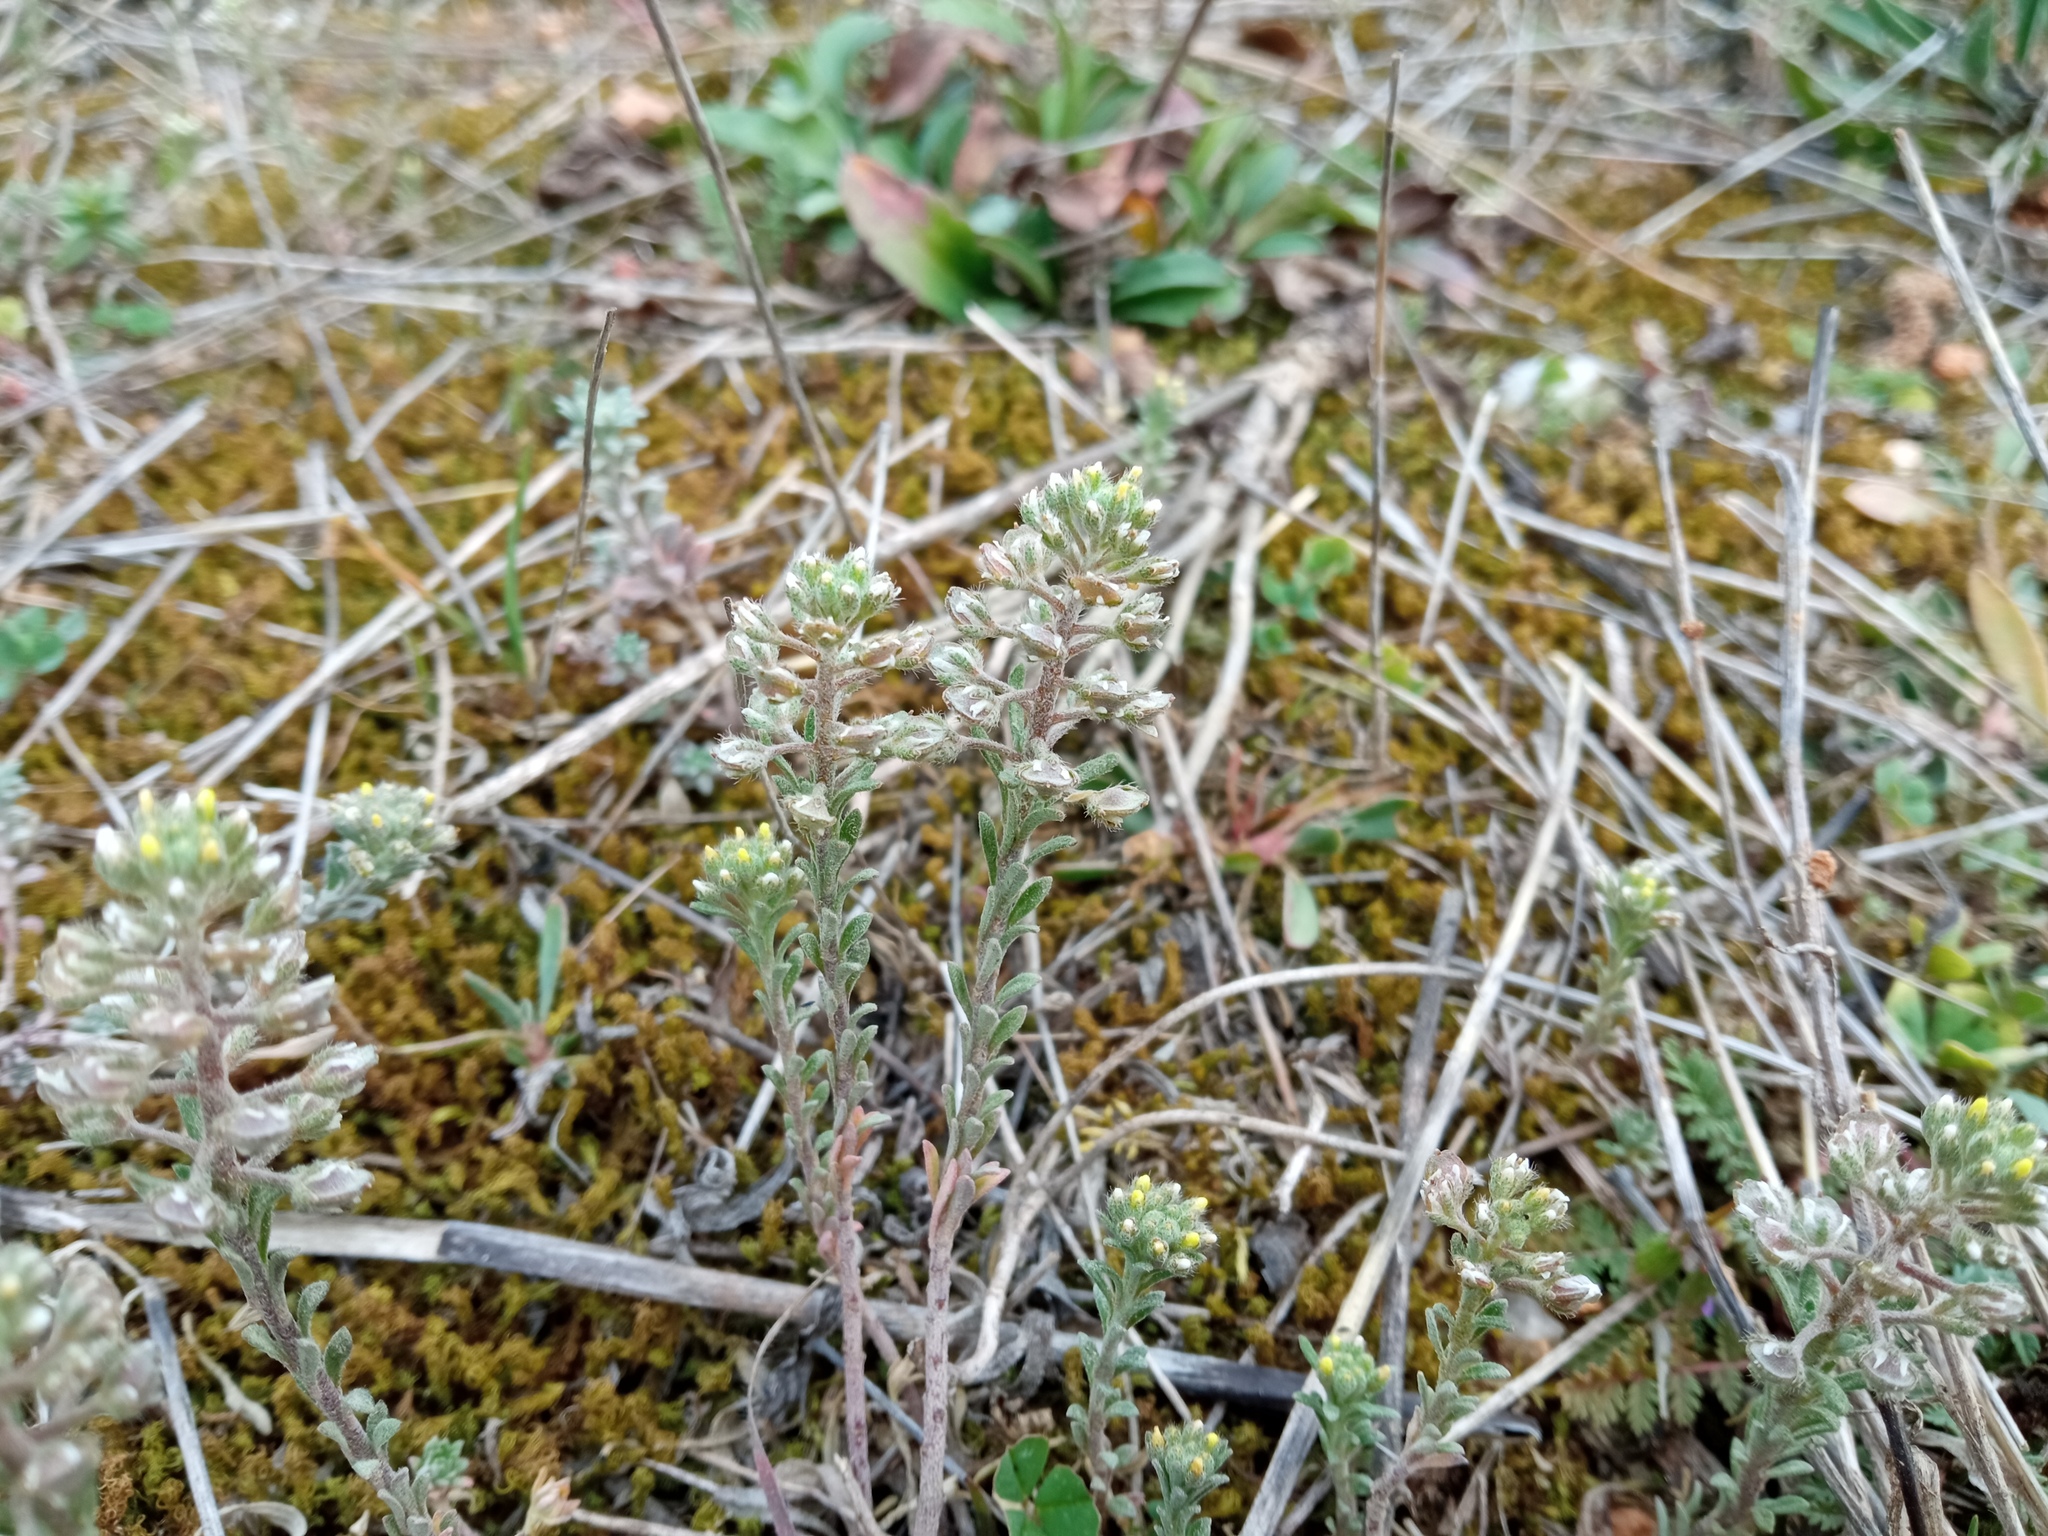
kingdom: Plantae
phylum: Tracheophyta
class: Magnoliopsida
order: Brassicales
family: Brassicaceae
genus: Alyssum
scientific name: Alyssum alyssoides
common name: Small alison
